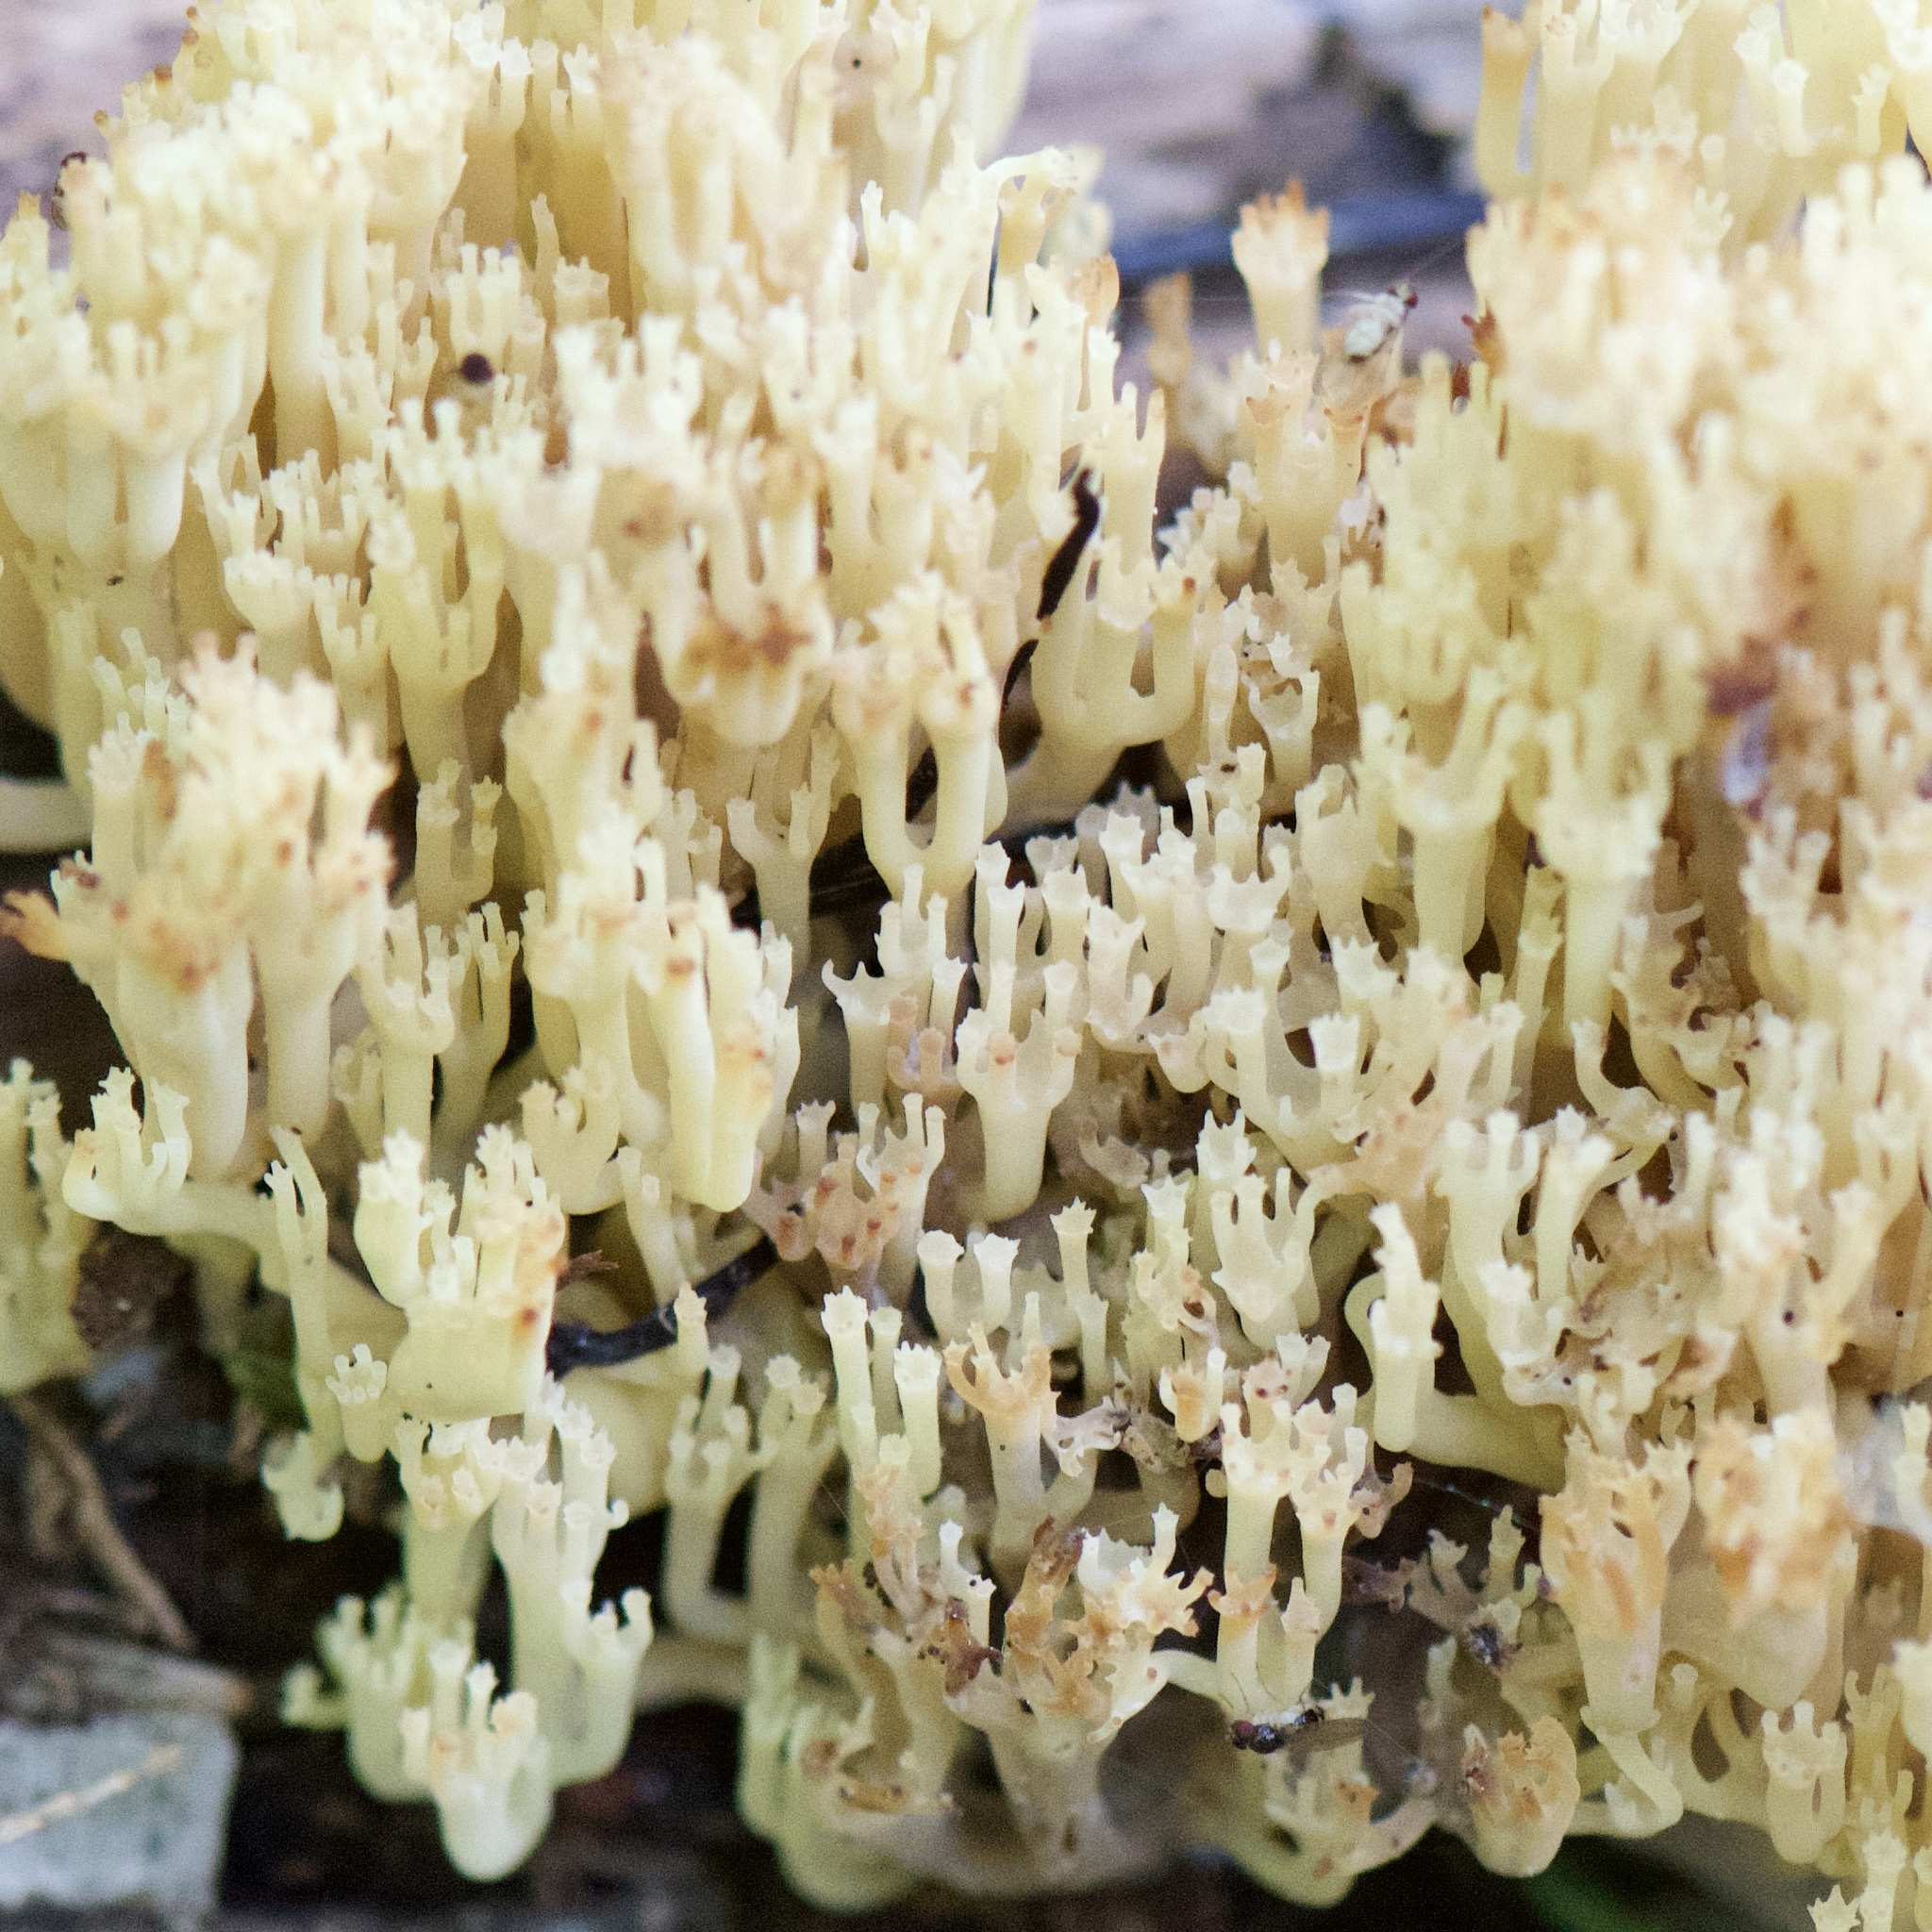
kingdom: Fungi
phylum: Basidiomycota
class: Agaricomycetes
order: Russulales
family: Auriscalpiaceae
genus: Artomyces
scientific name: Artomyces pyxidatus
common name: Crown-tipped coral fungus
